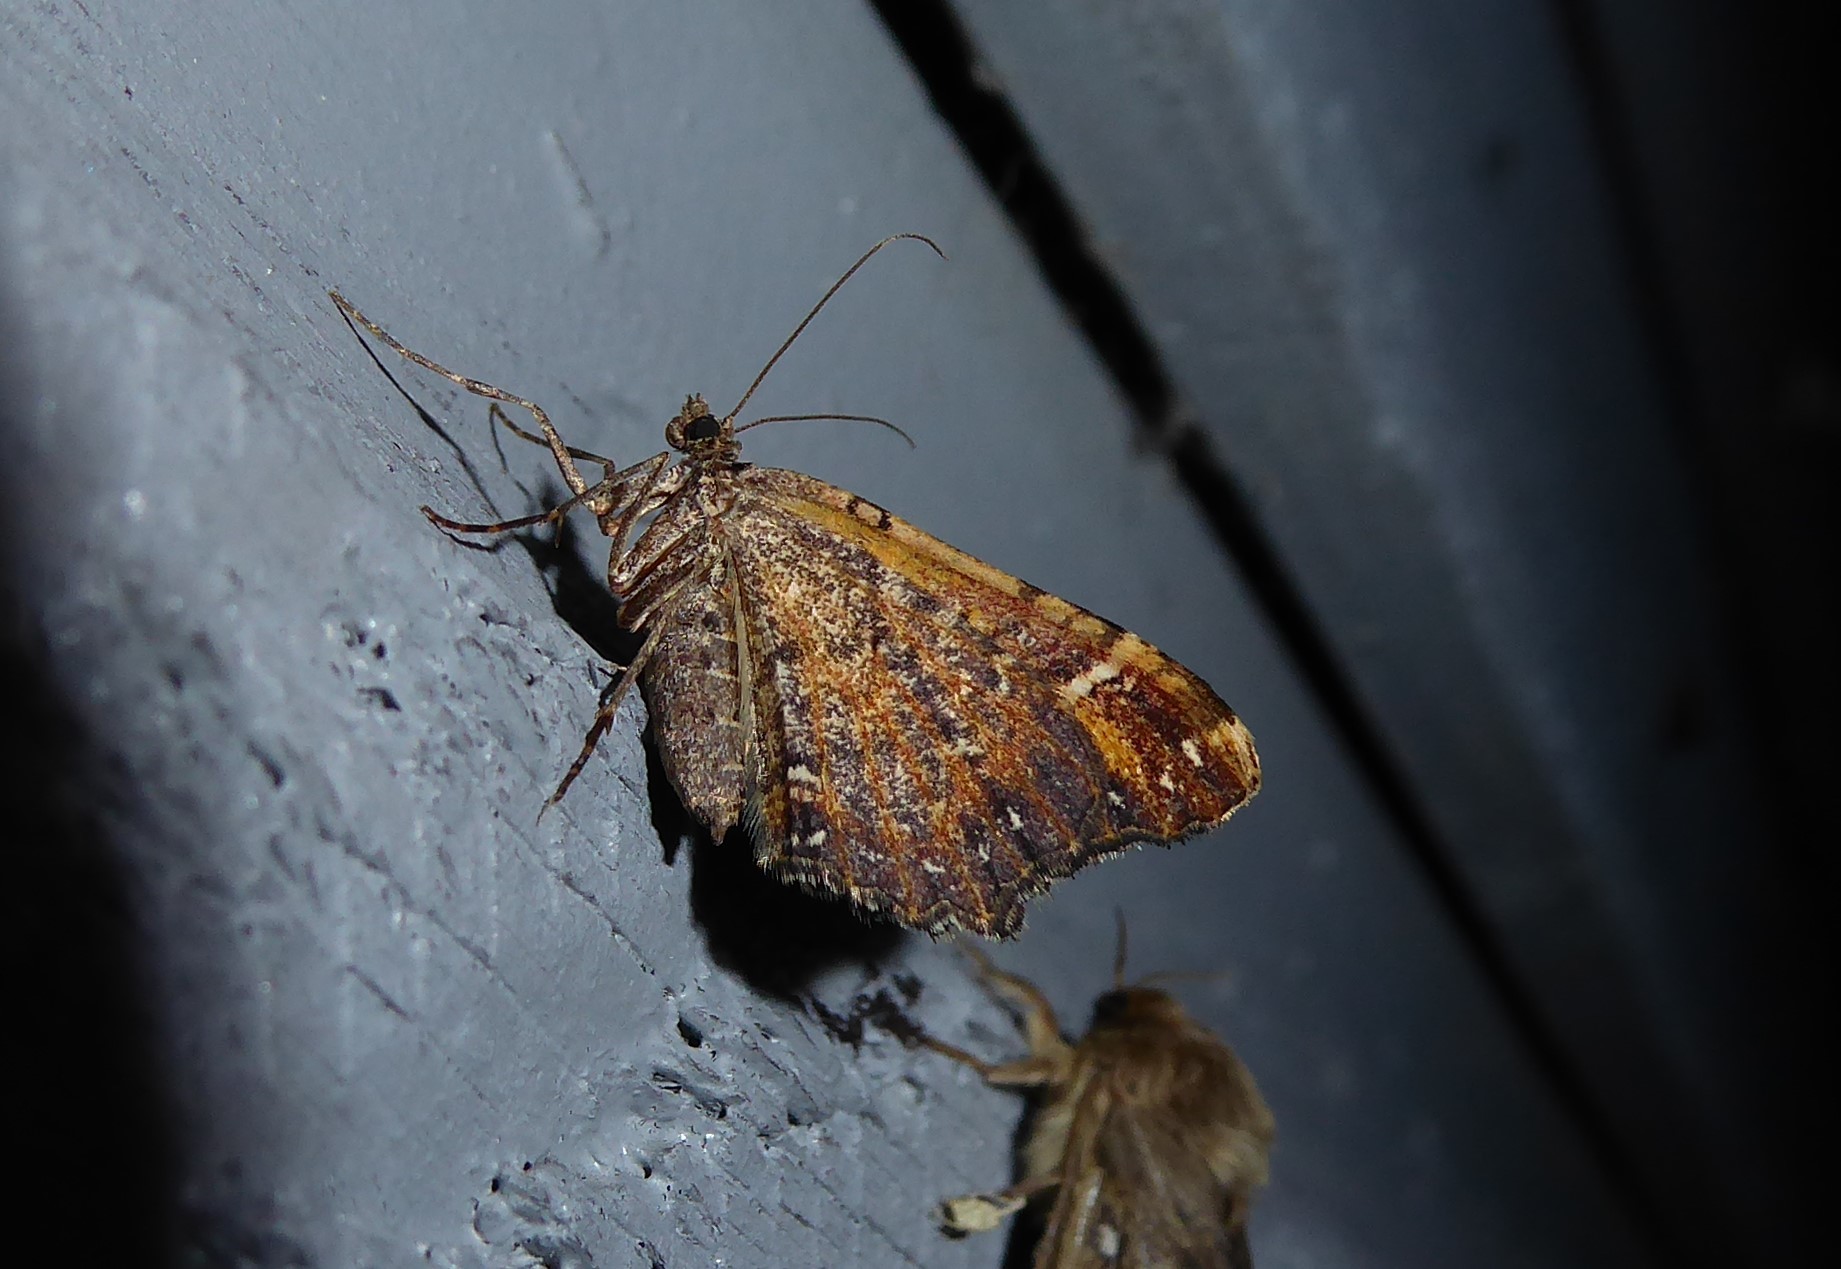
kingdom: Animalia
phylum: Arthropoda
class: Insecta
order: Lepidoptera
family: Geometridae
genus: Asaphodes
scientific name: Asaphodes chlamydota
